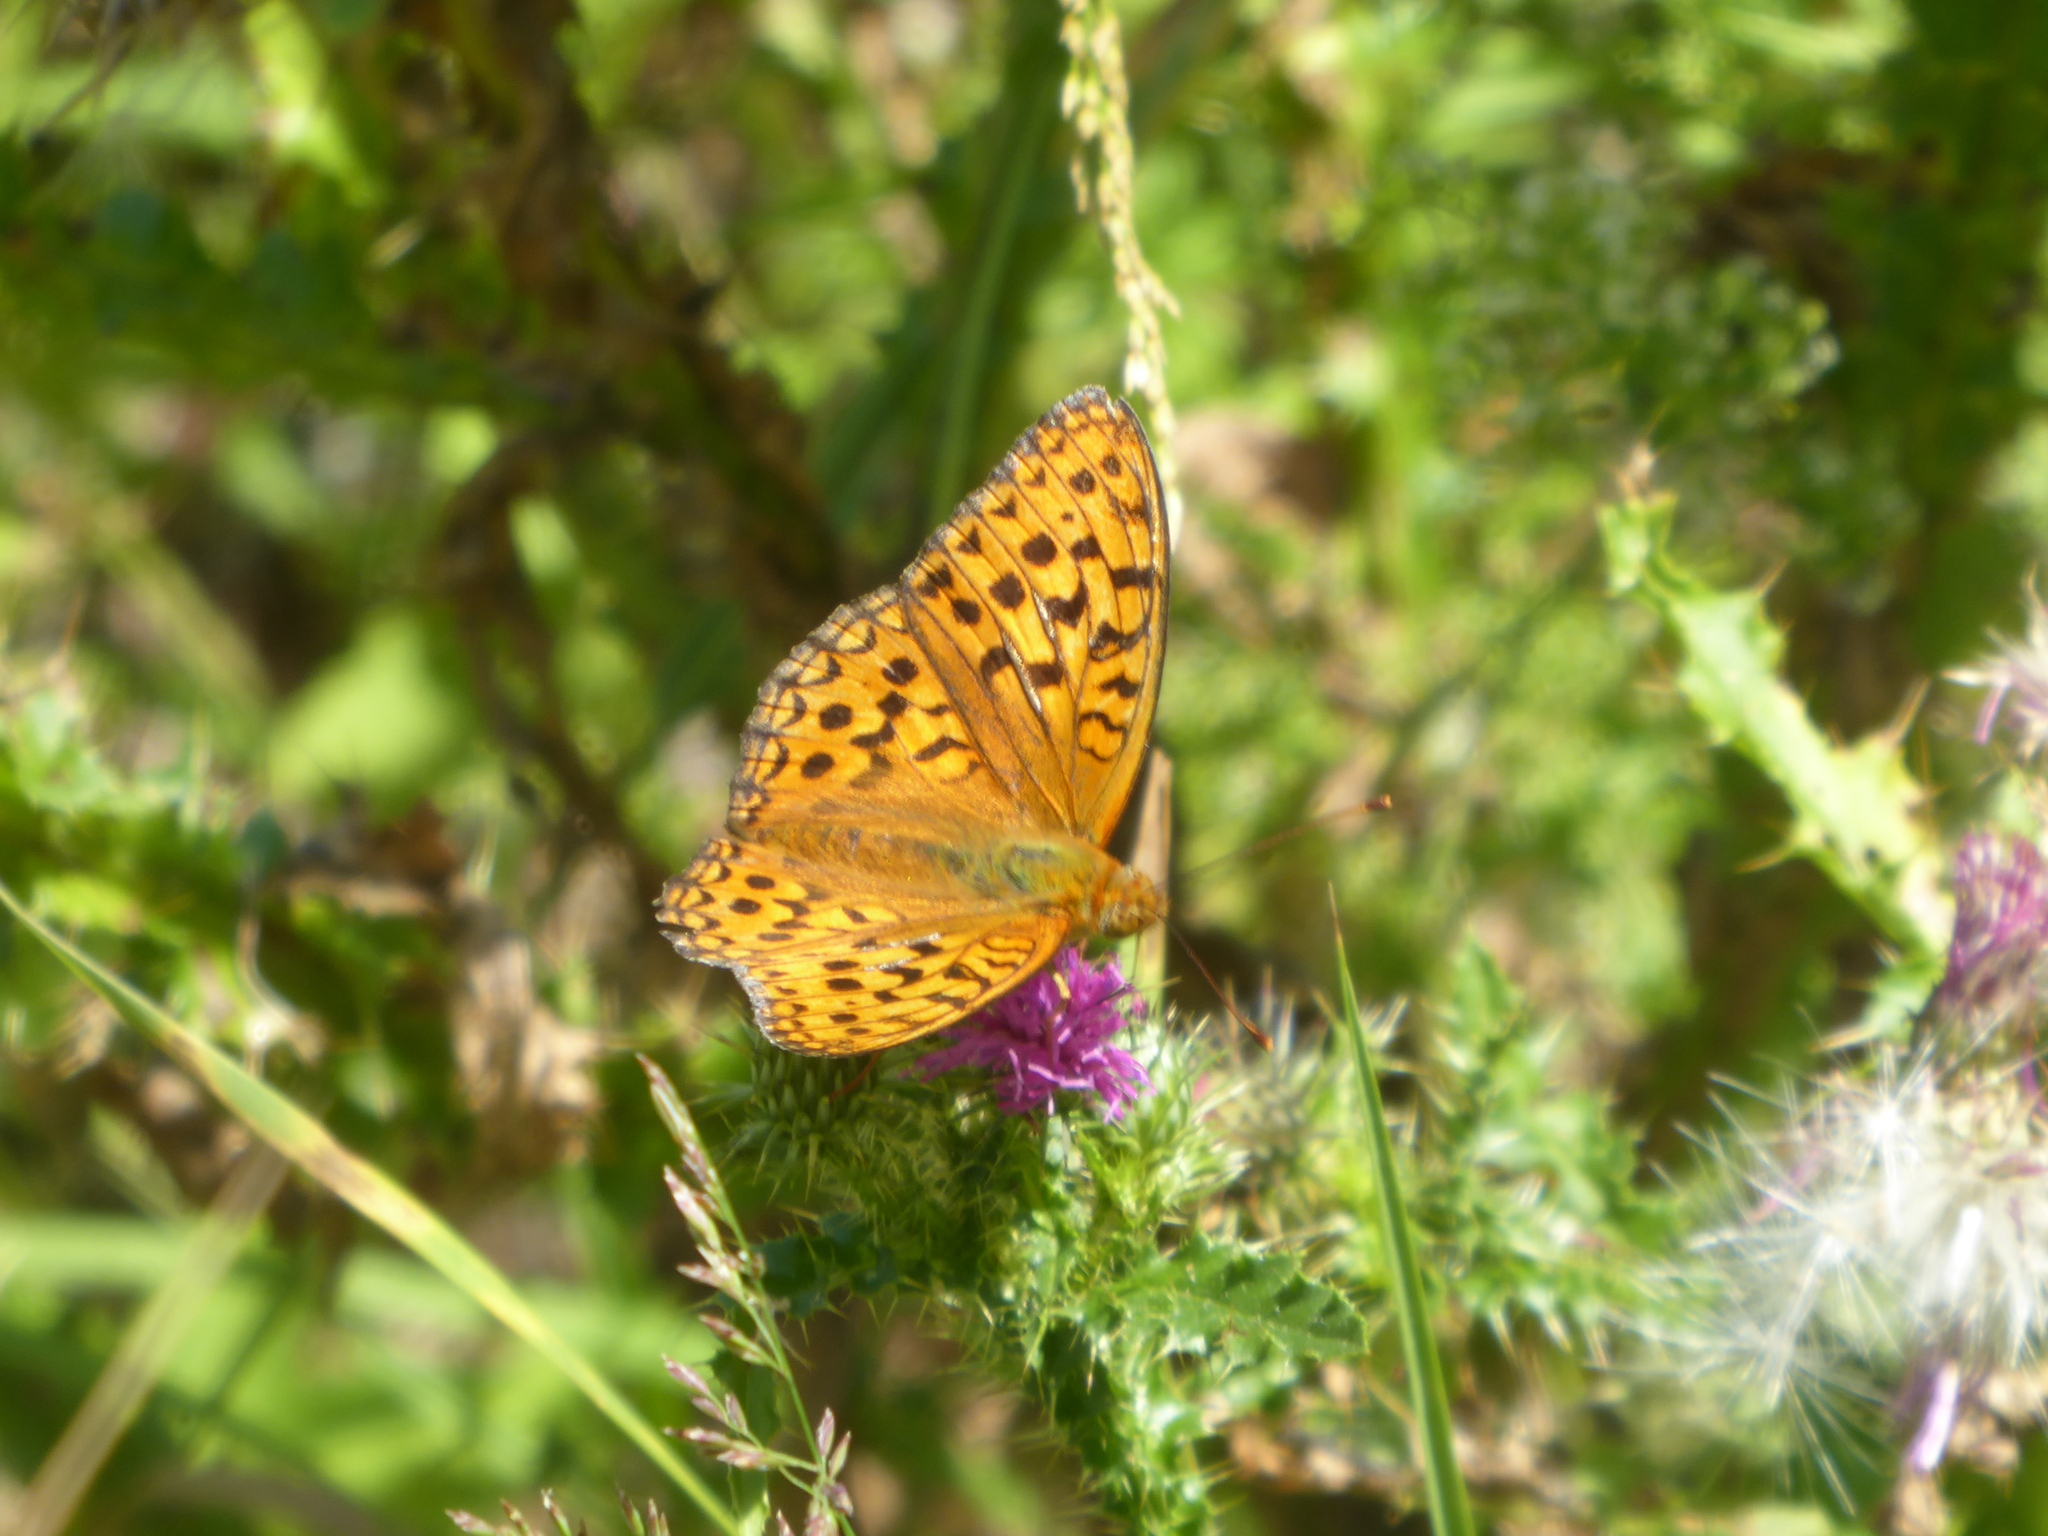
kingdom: Animalia
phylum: Arthropoda
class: Insecta
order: Lepidoptera
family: Nymphalidae
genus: Fabriciana
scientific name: Fabriciana adippe
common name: High brown fritillary
